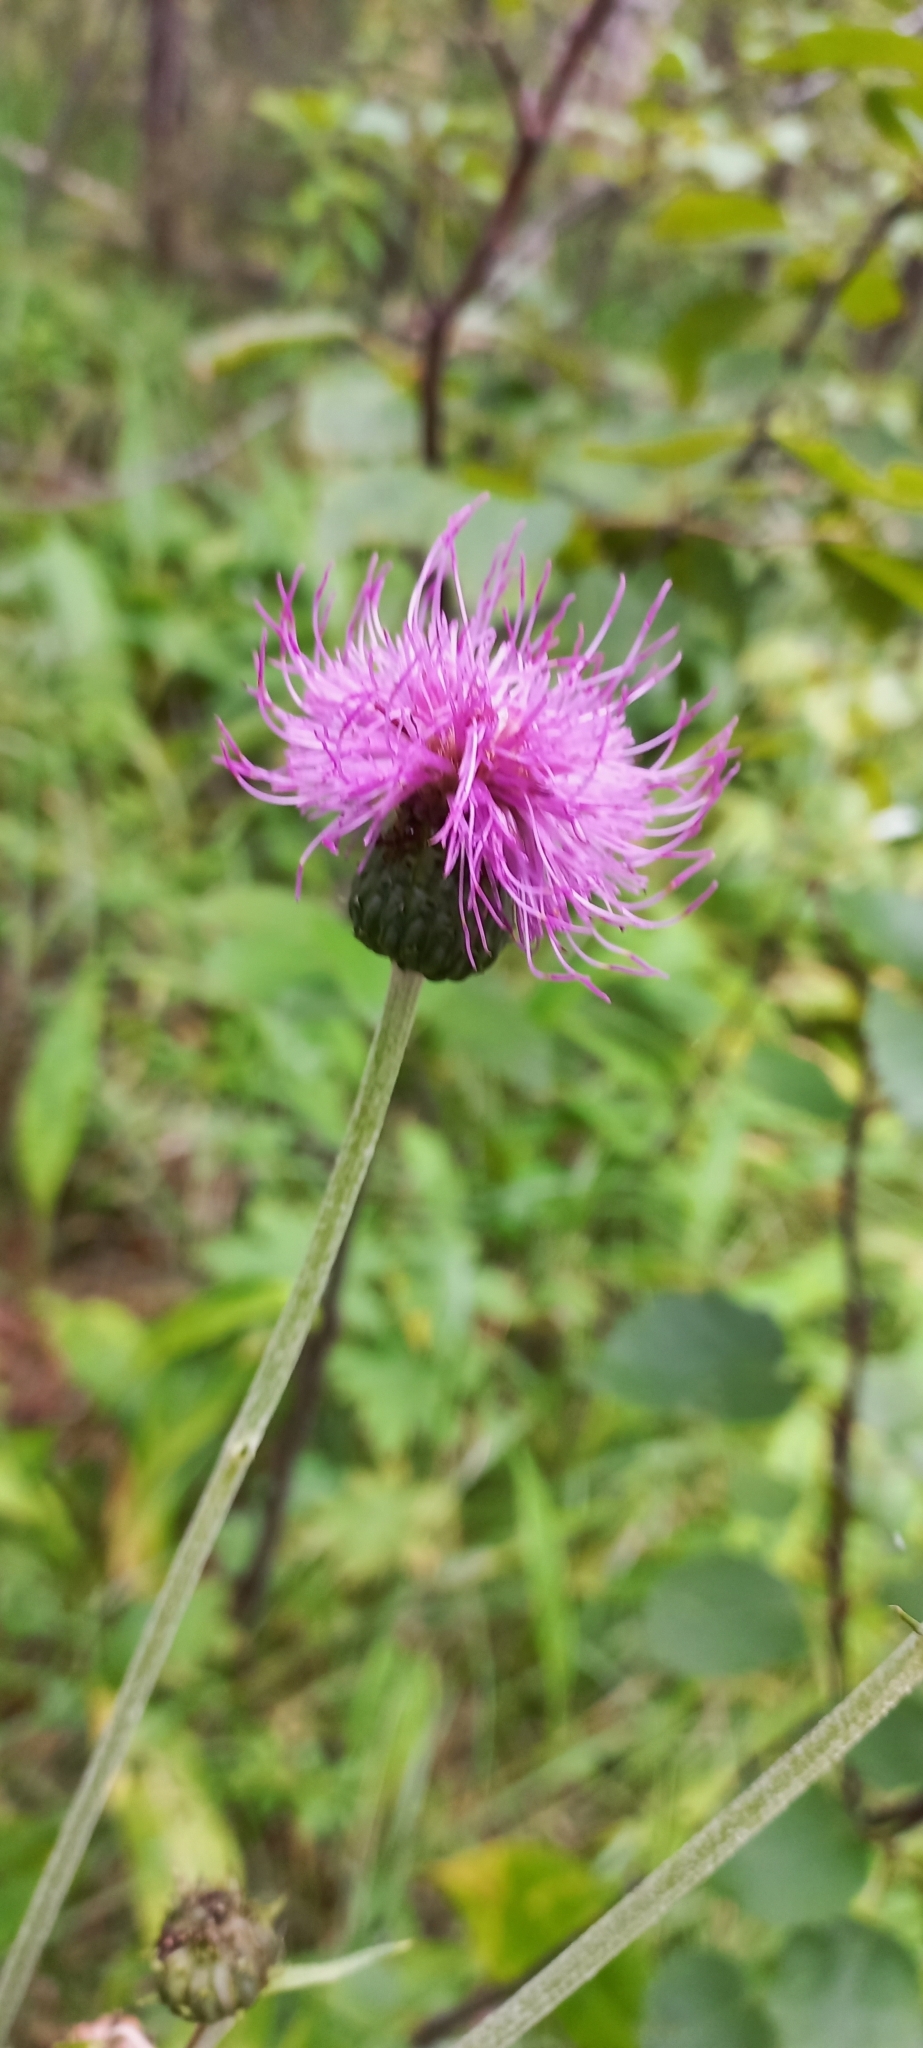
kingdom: Plantae
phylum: Tracheophyta
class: Magnoliopsida
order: Asterales
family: Asteraceae
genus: Cirsium
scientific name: Cirsium heterophyllum
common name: Melancholy thistle
